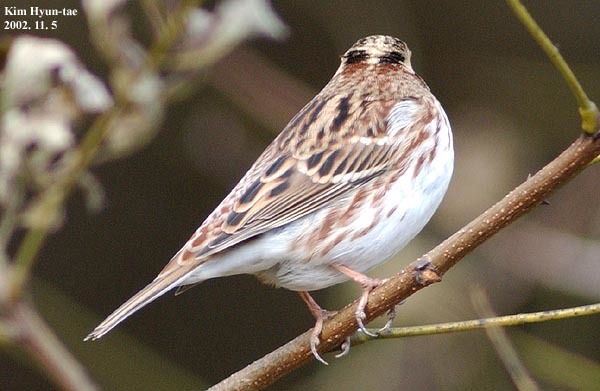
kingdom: Animalia
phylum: Chordata
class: Aves
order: Passeriformes
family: Emberizidae
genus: Emberiza
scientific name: Emberiza rustica
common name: Rustic bunting
